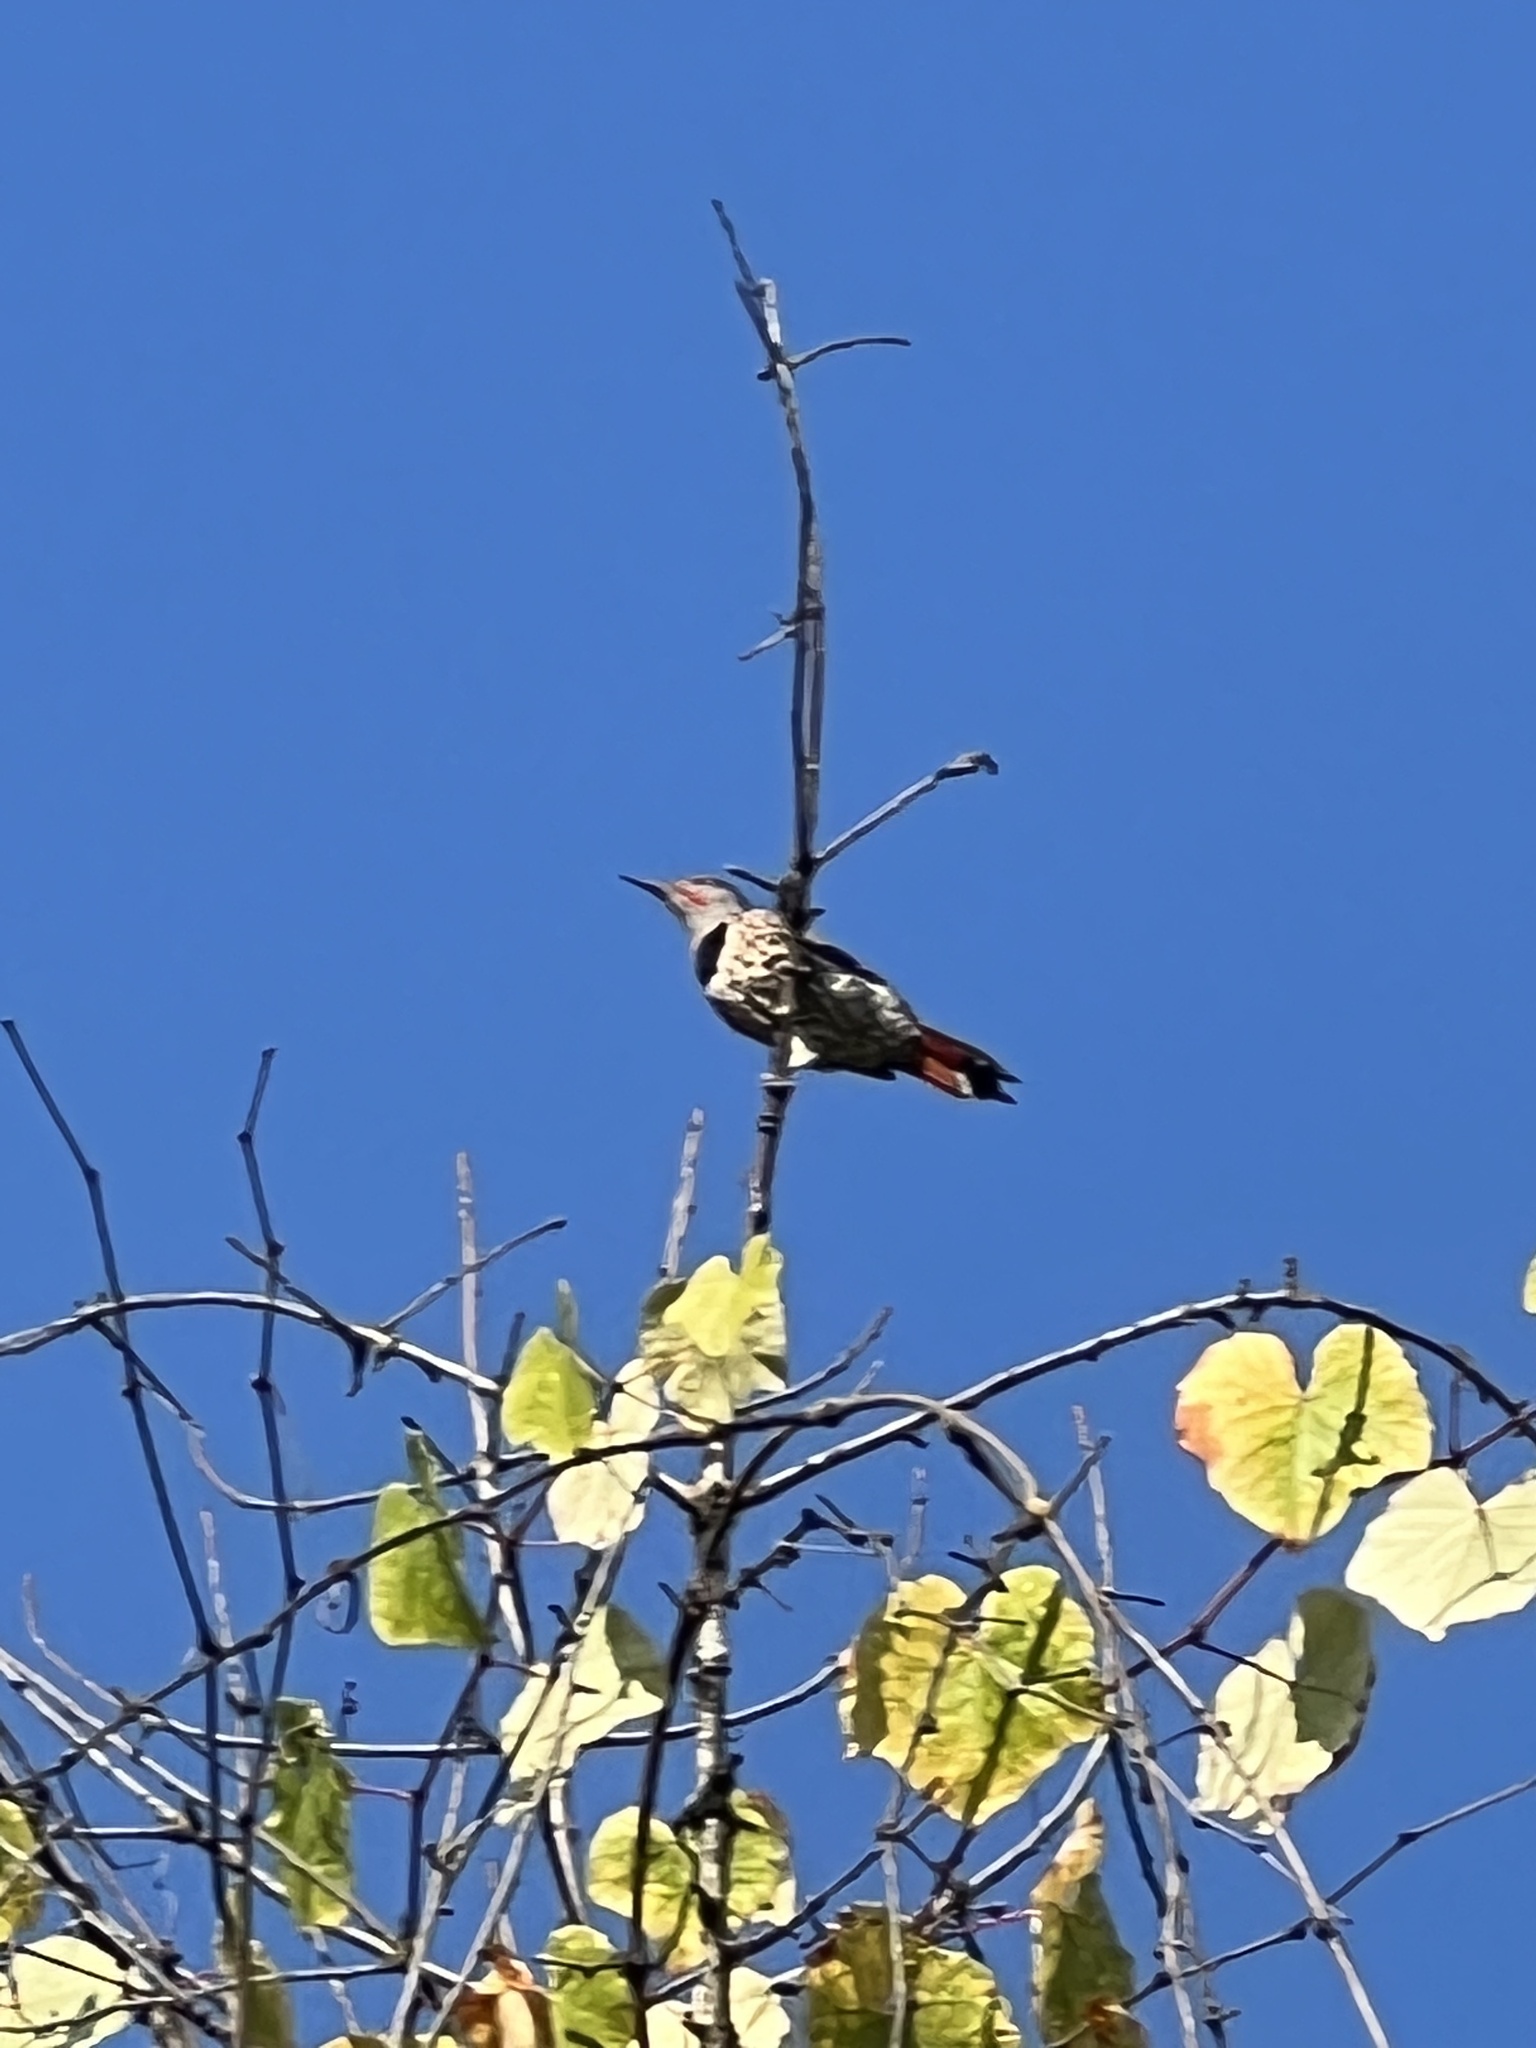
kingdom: Animalia
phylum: Chordata
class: Aves
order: Piciformes
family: Picidae
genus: Colaptes
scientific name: Colaptes auratus
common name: Northern flicker
